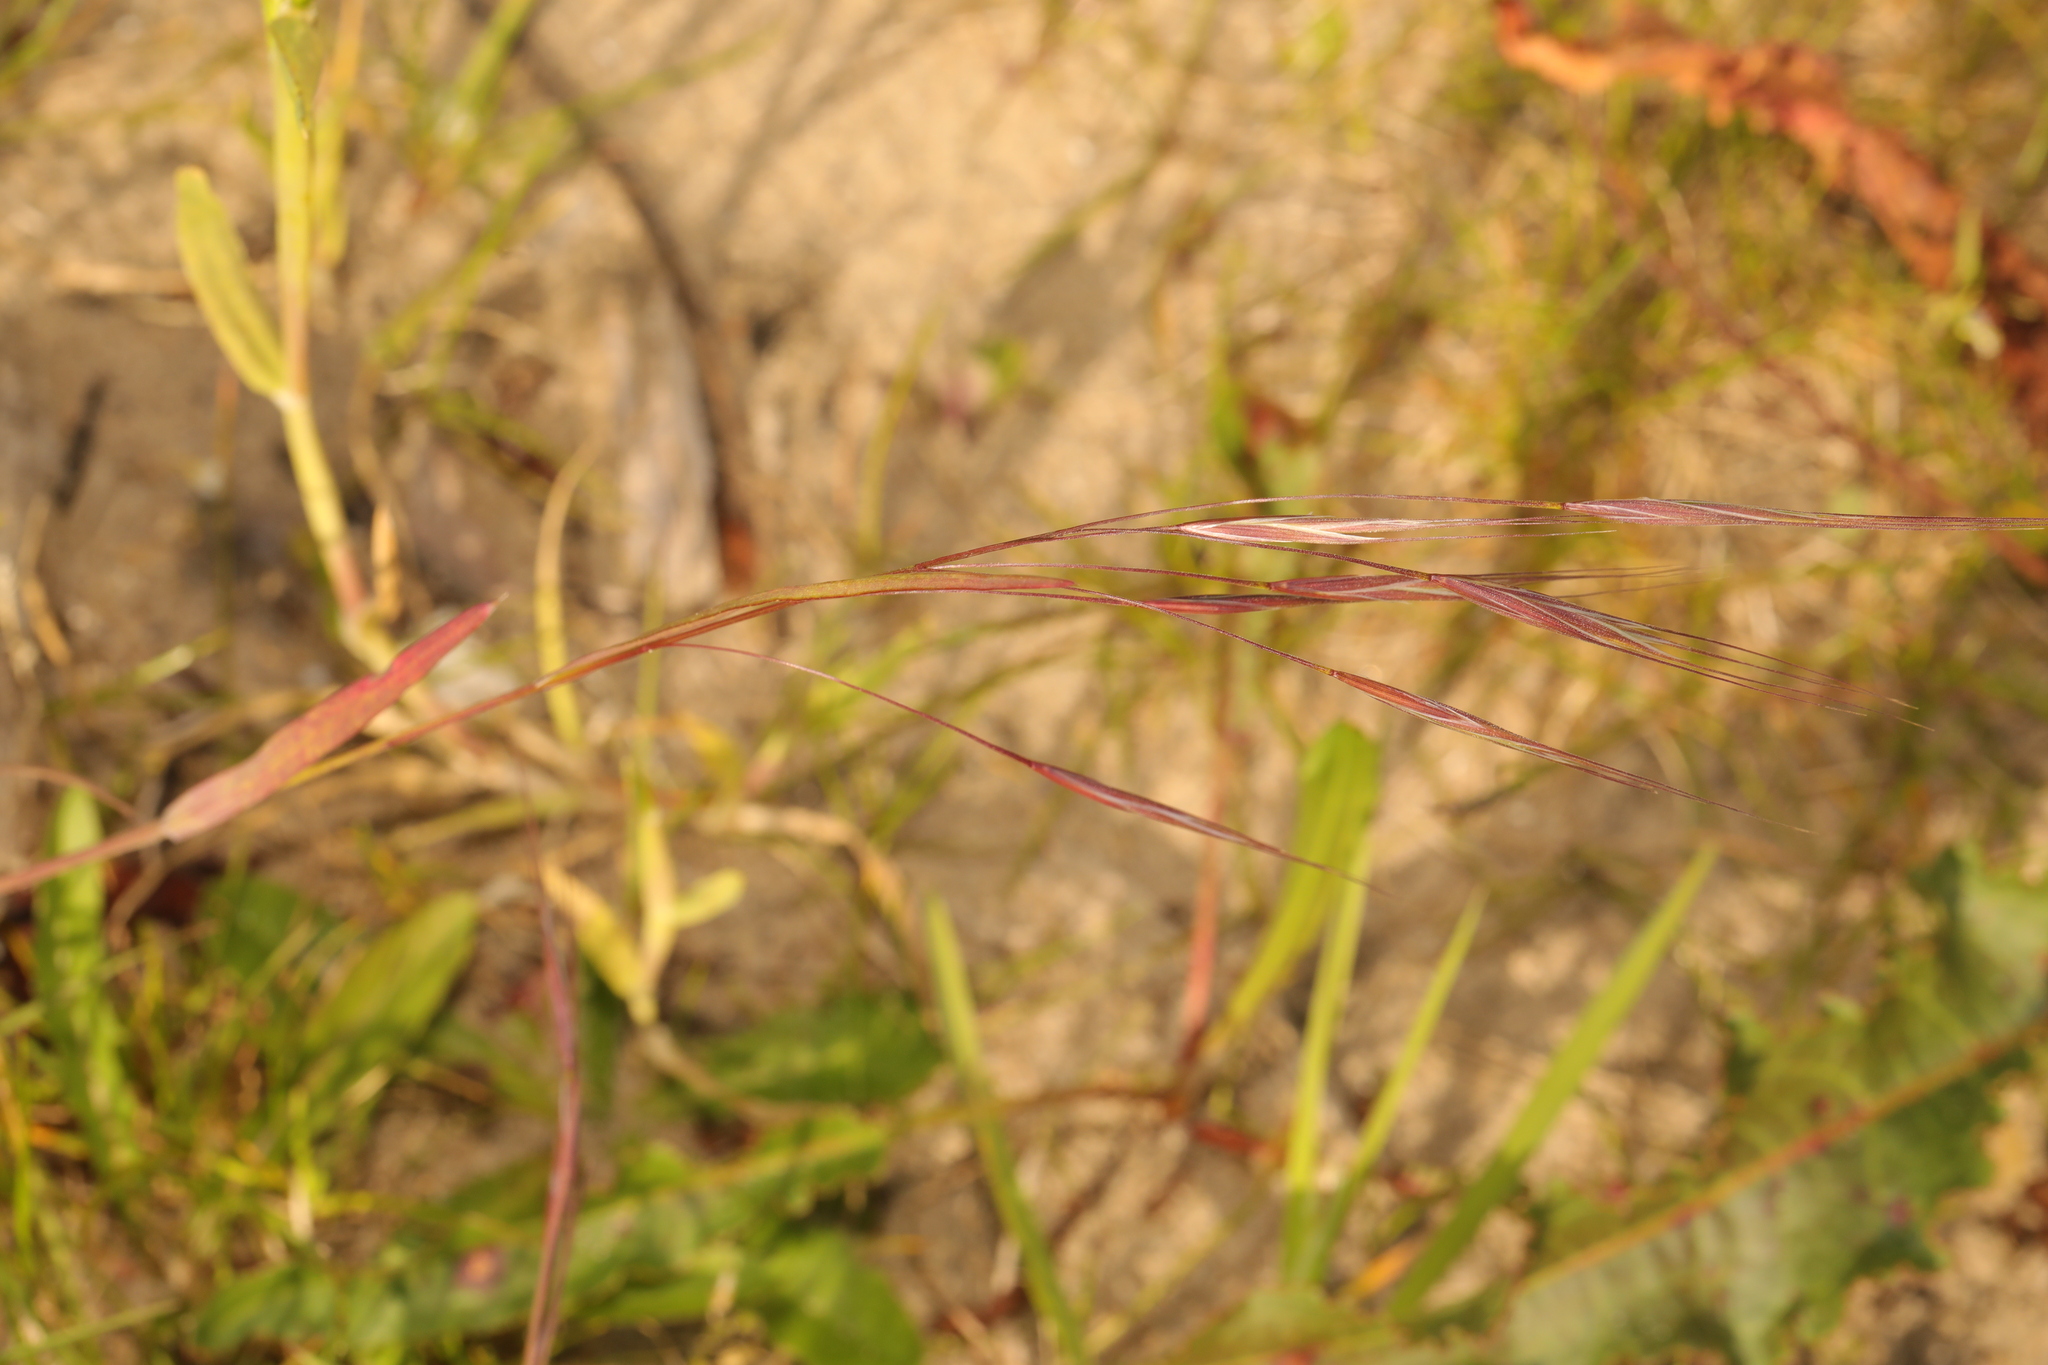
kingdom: Plantae
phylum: Tracheophyta
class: Liliopsida
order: Poales
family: Poaceae
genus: Bromus
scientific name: Bromus sterilis
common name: Poverty brome
